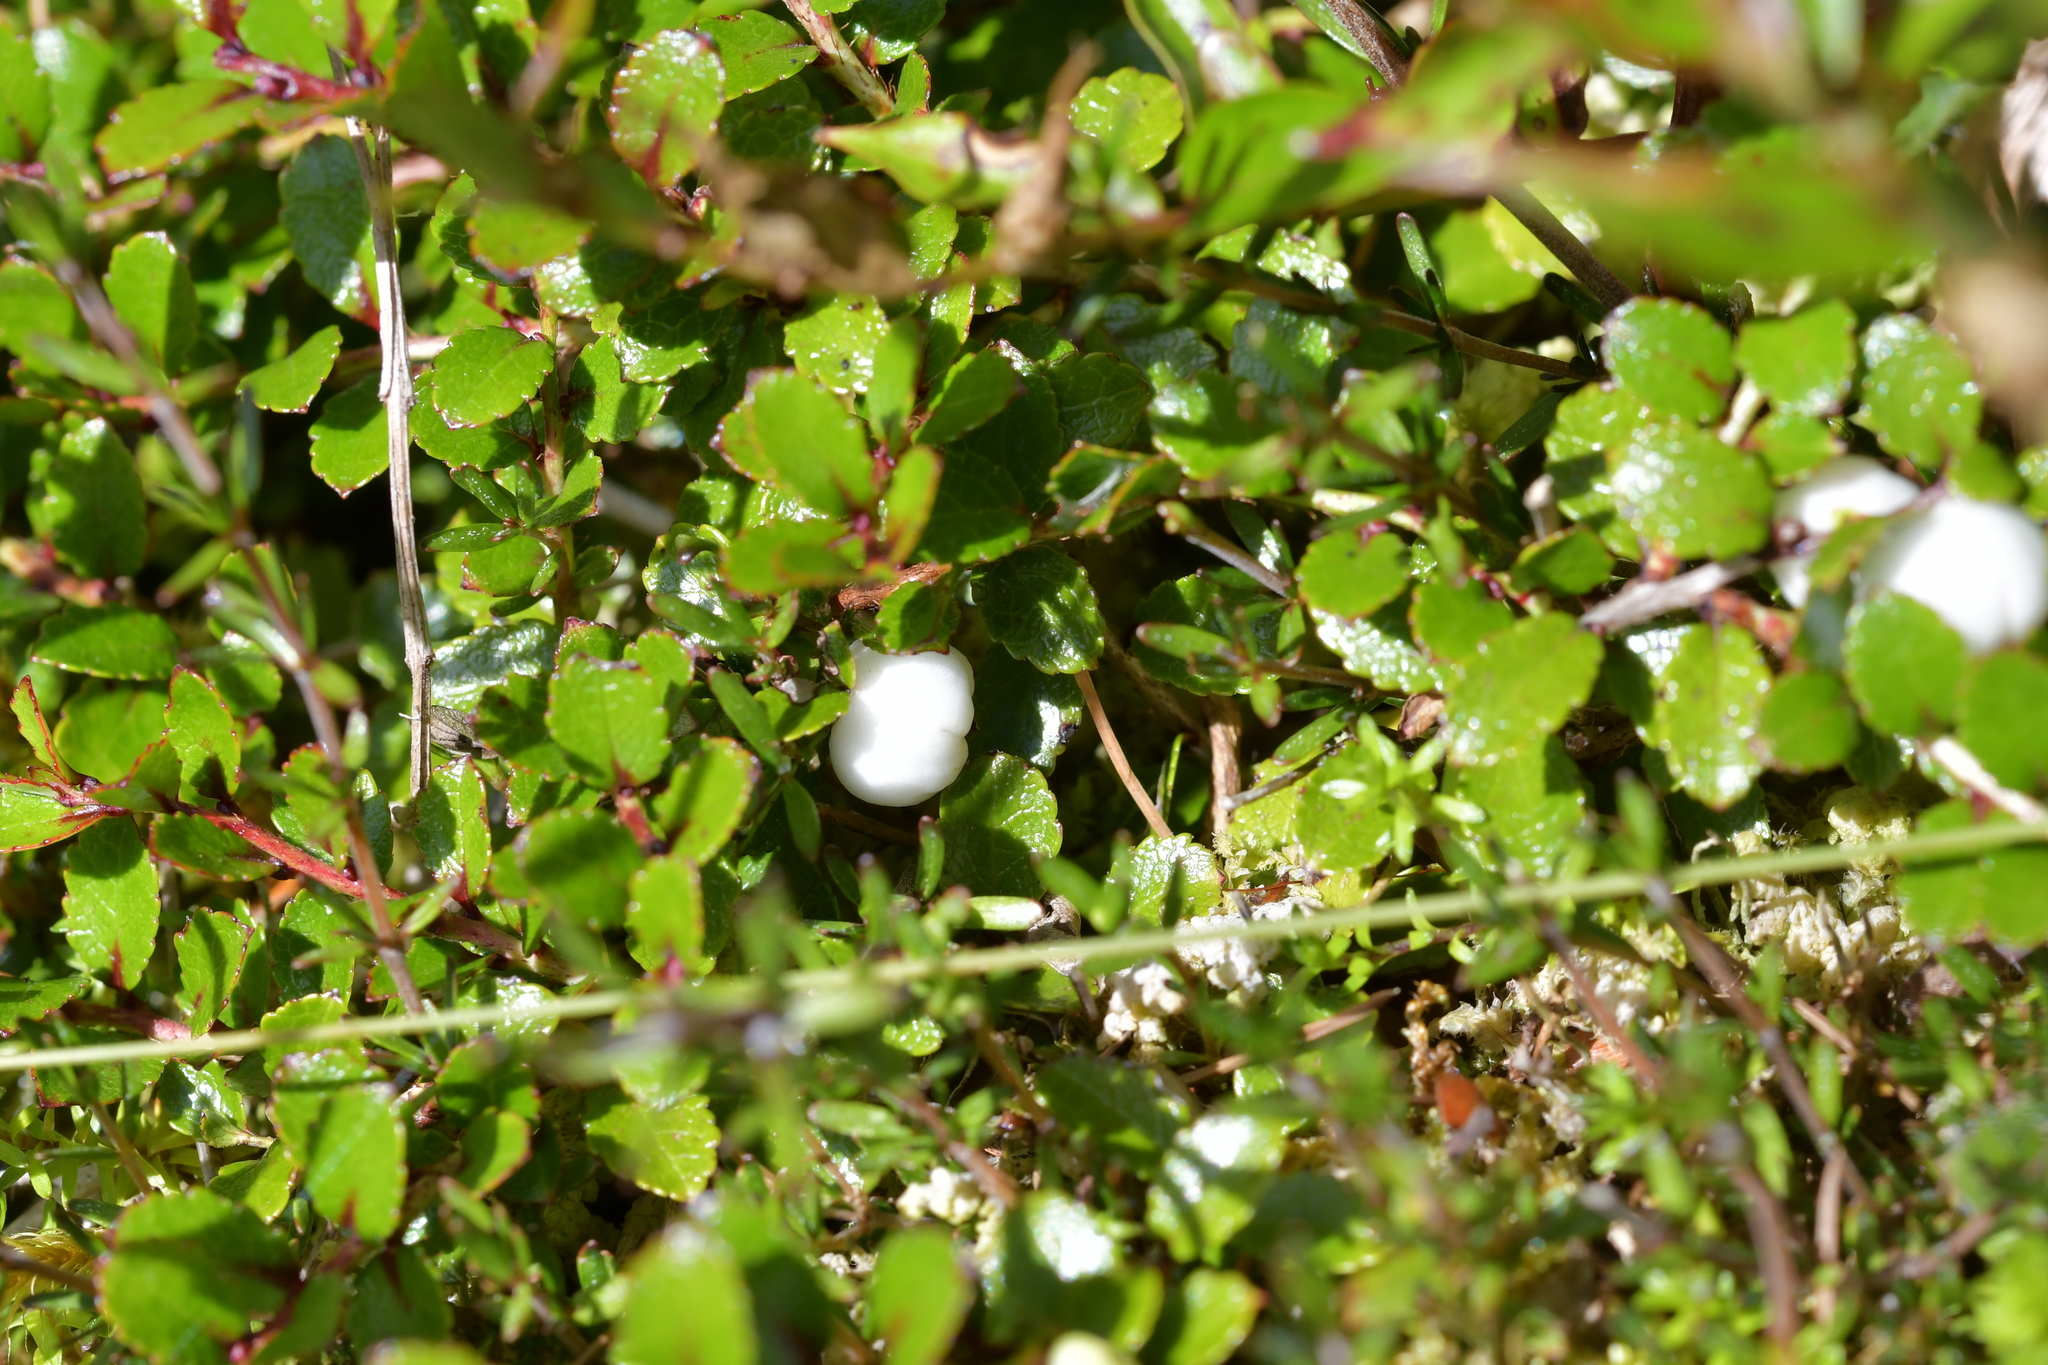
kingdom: Plantae
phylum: Tracheophyta
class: Magnoliopsida
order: Ericales
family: Ericaceae
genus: Gaultheria
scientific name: Gaultheria depressa
